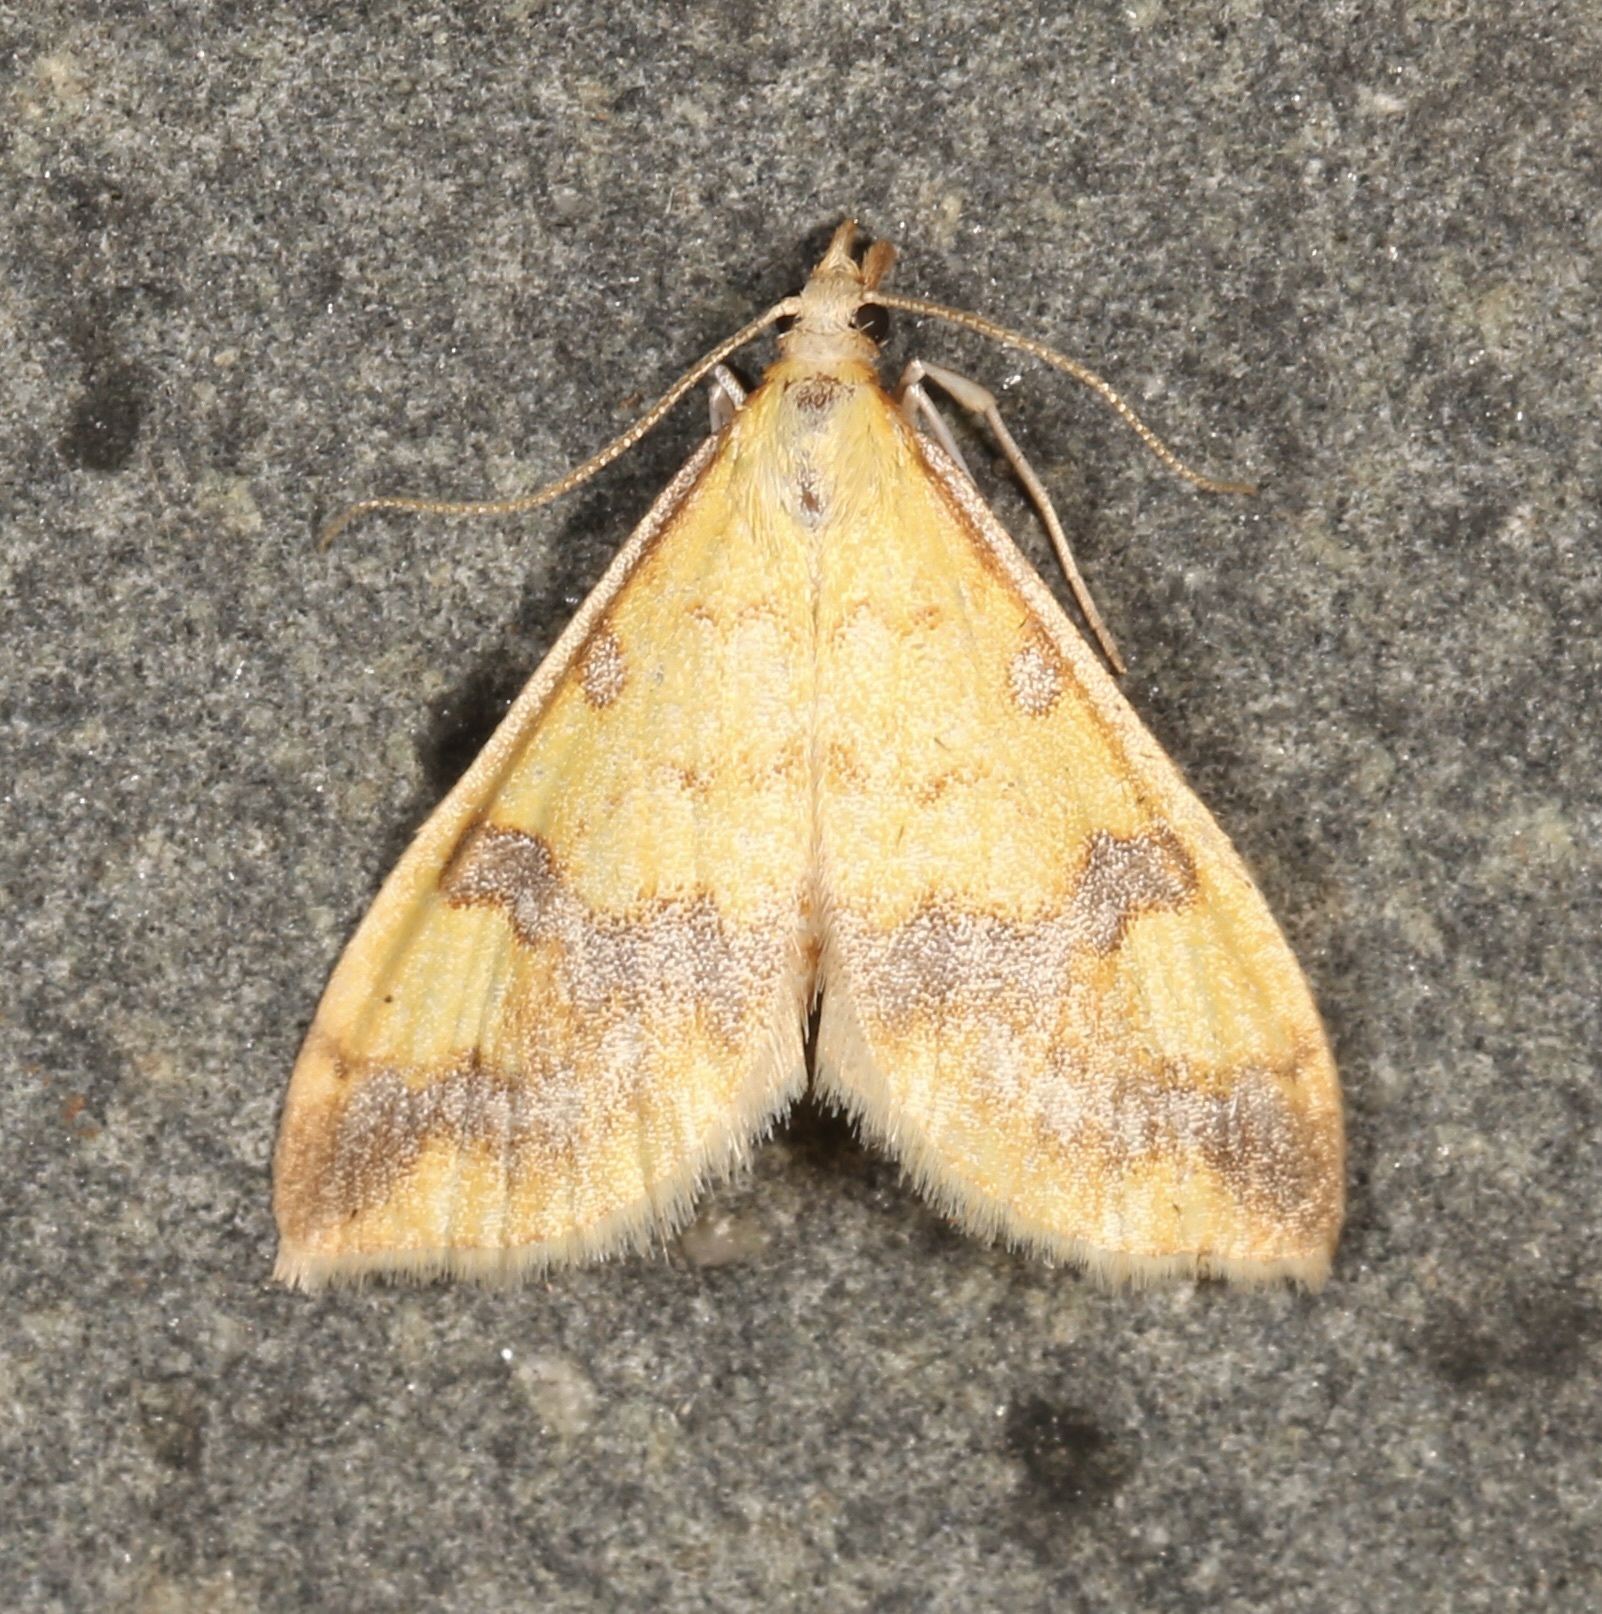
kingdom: Animalia
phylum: Arthropoda
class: Insecta
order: Lepidoptera
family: Crambidae
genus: Choristostigma
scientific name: Choristostigma plumbosignalis
